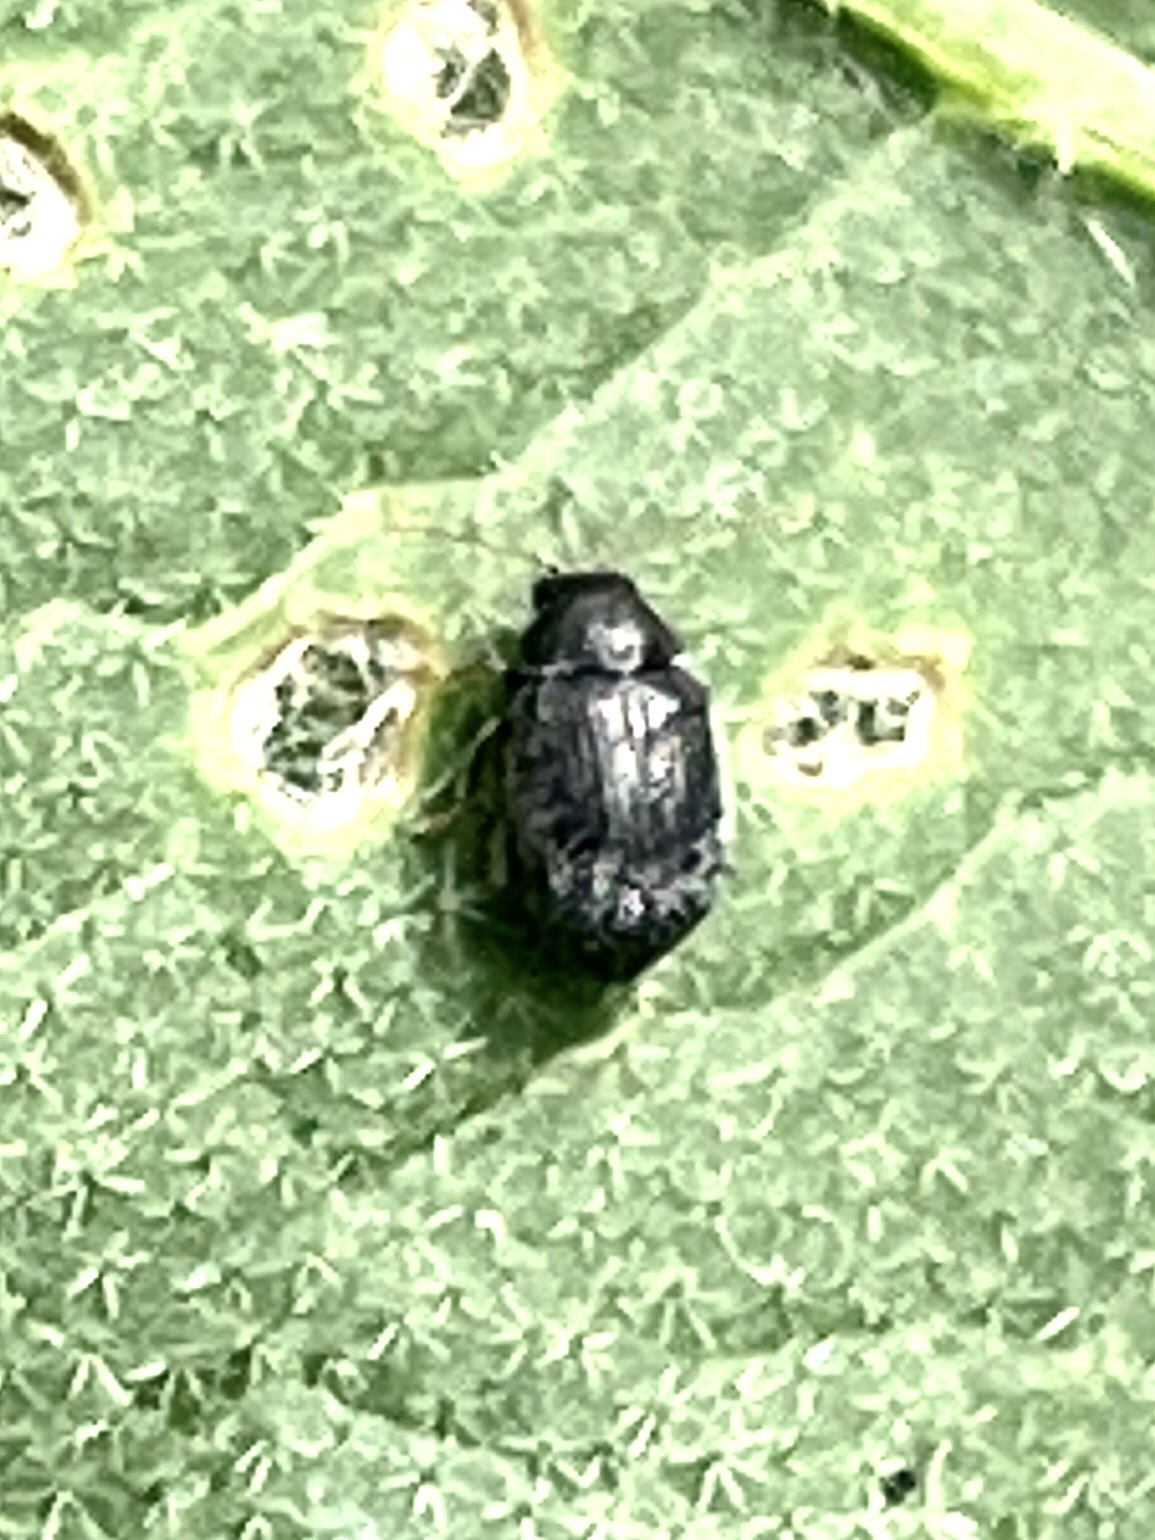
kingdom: Animalia
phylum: Arthropoda
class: Insecta
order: Coleoptera
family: Chrysomelidae
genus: Epitrix
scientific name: Epitrix fuscula
